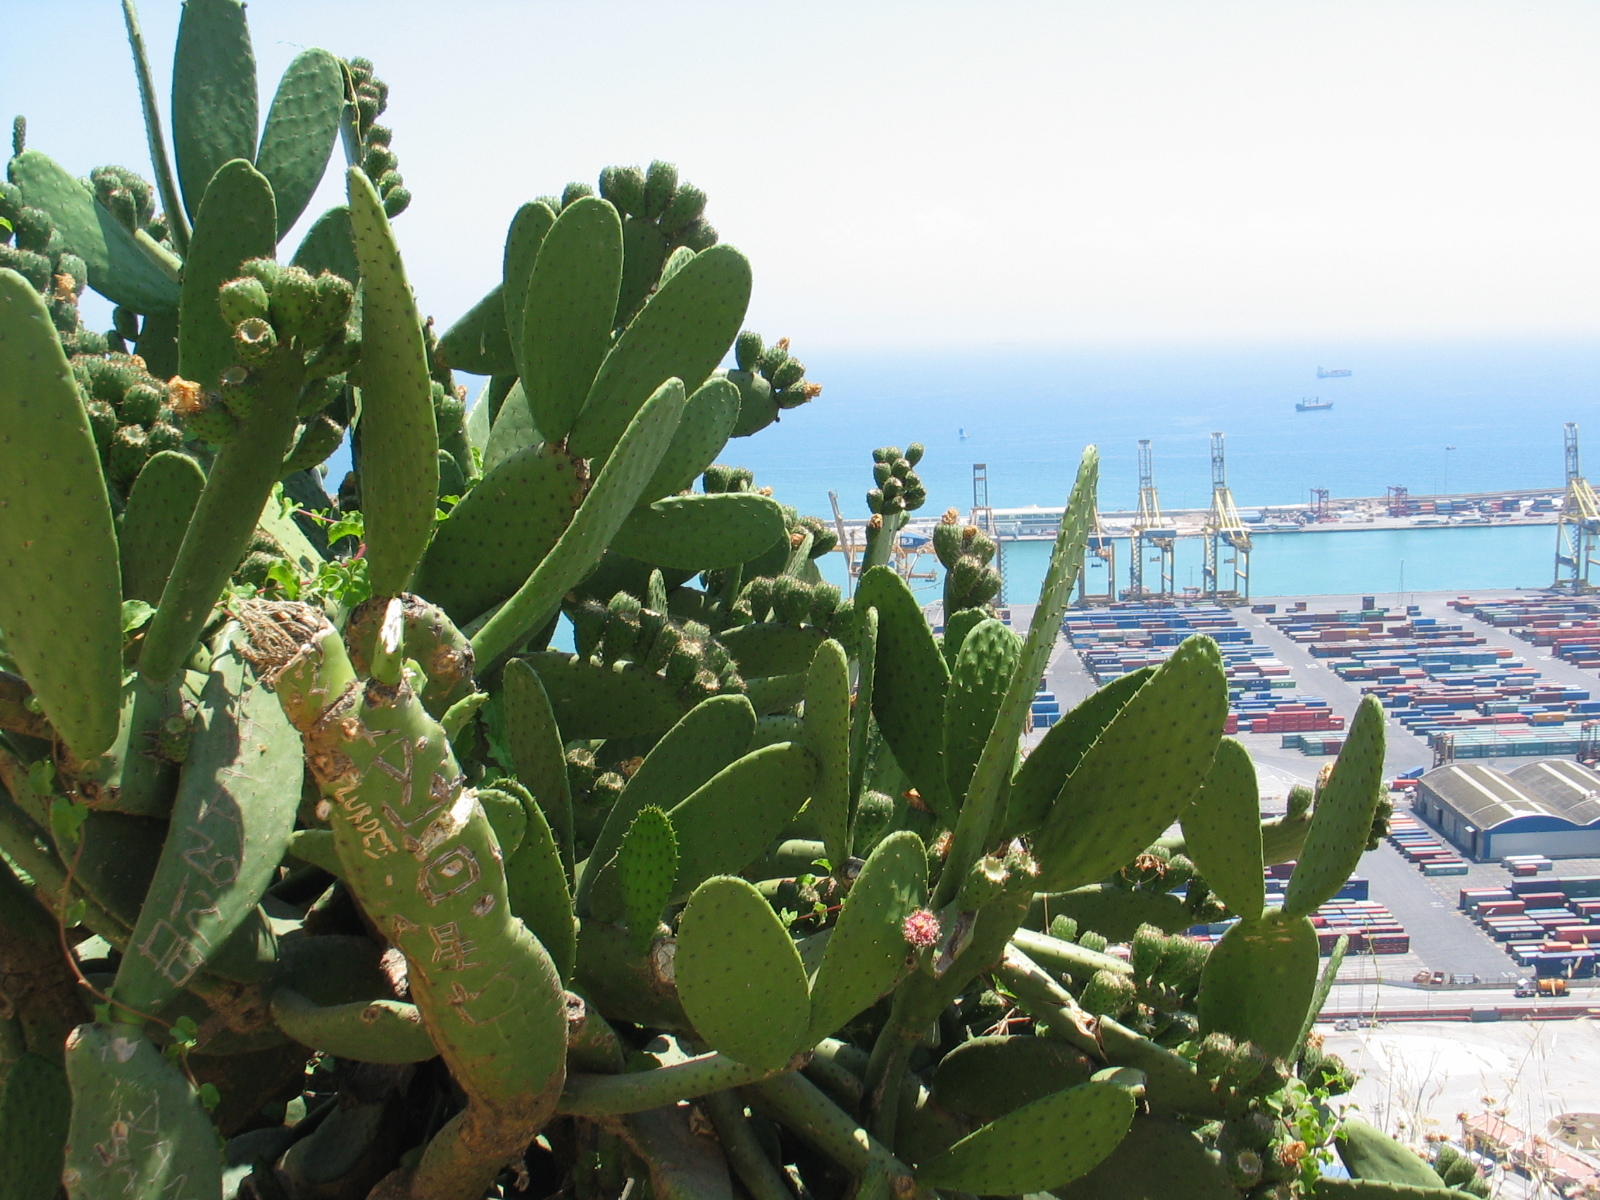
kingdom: Plantae
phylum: Tracheophyta
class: Magnoliopsida
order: Caryophyllales
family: Cactaceae
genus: Opuntia
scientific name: Opuntia ficus-indica
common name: Barbary fig
